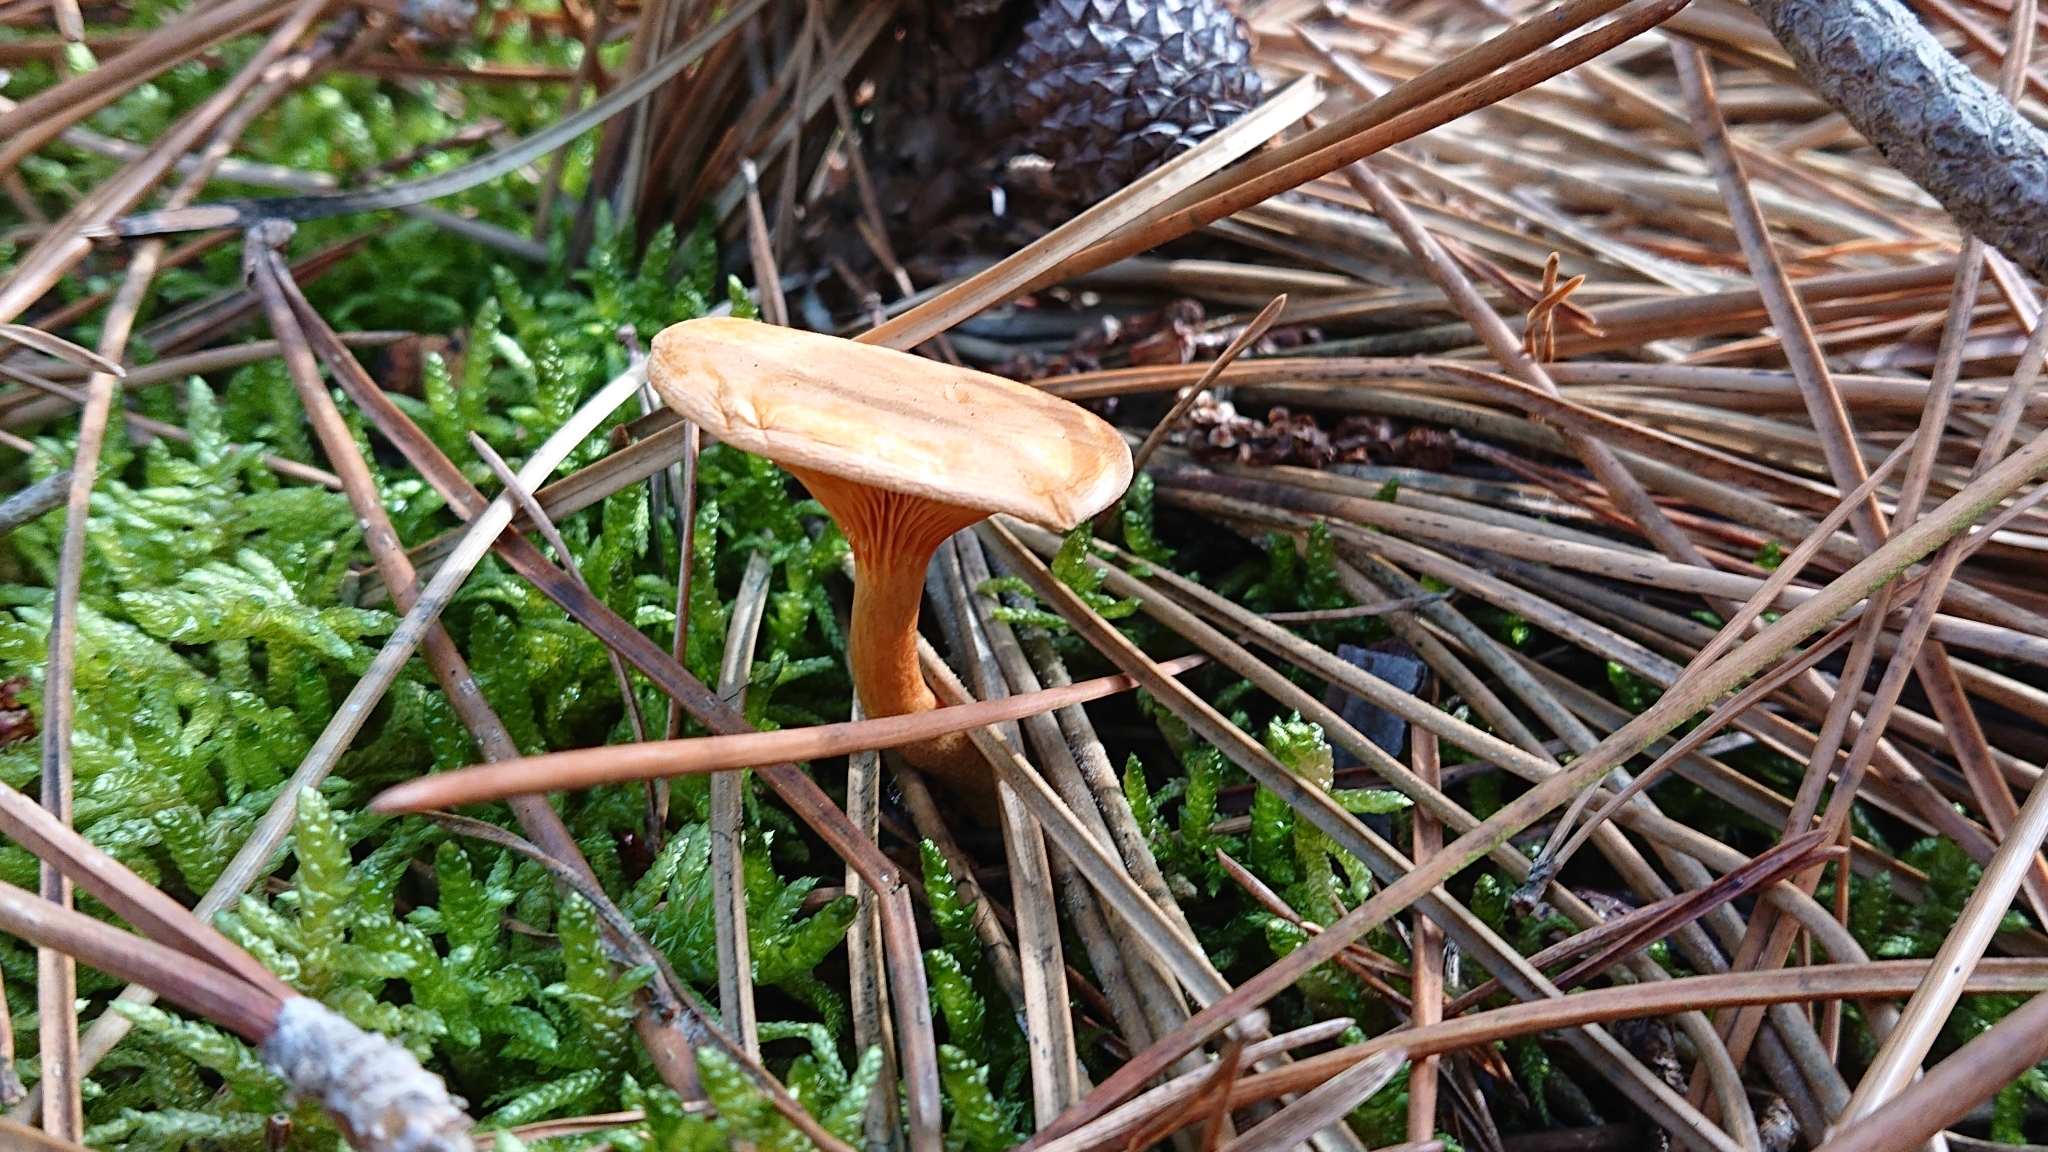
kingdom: Fungi
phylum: Basidiomycota
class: Agaricomycetes
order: Boletales
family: Hygrophoropsidaceae
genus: Hygrophoropsis
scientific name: Hygrophoropsis aurantiaca
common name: False chanterelle
